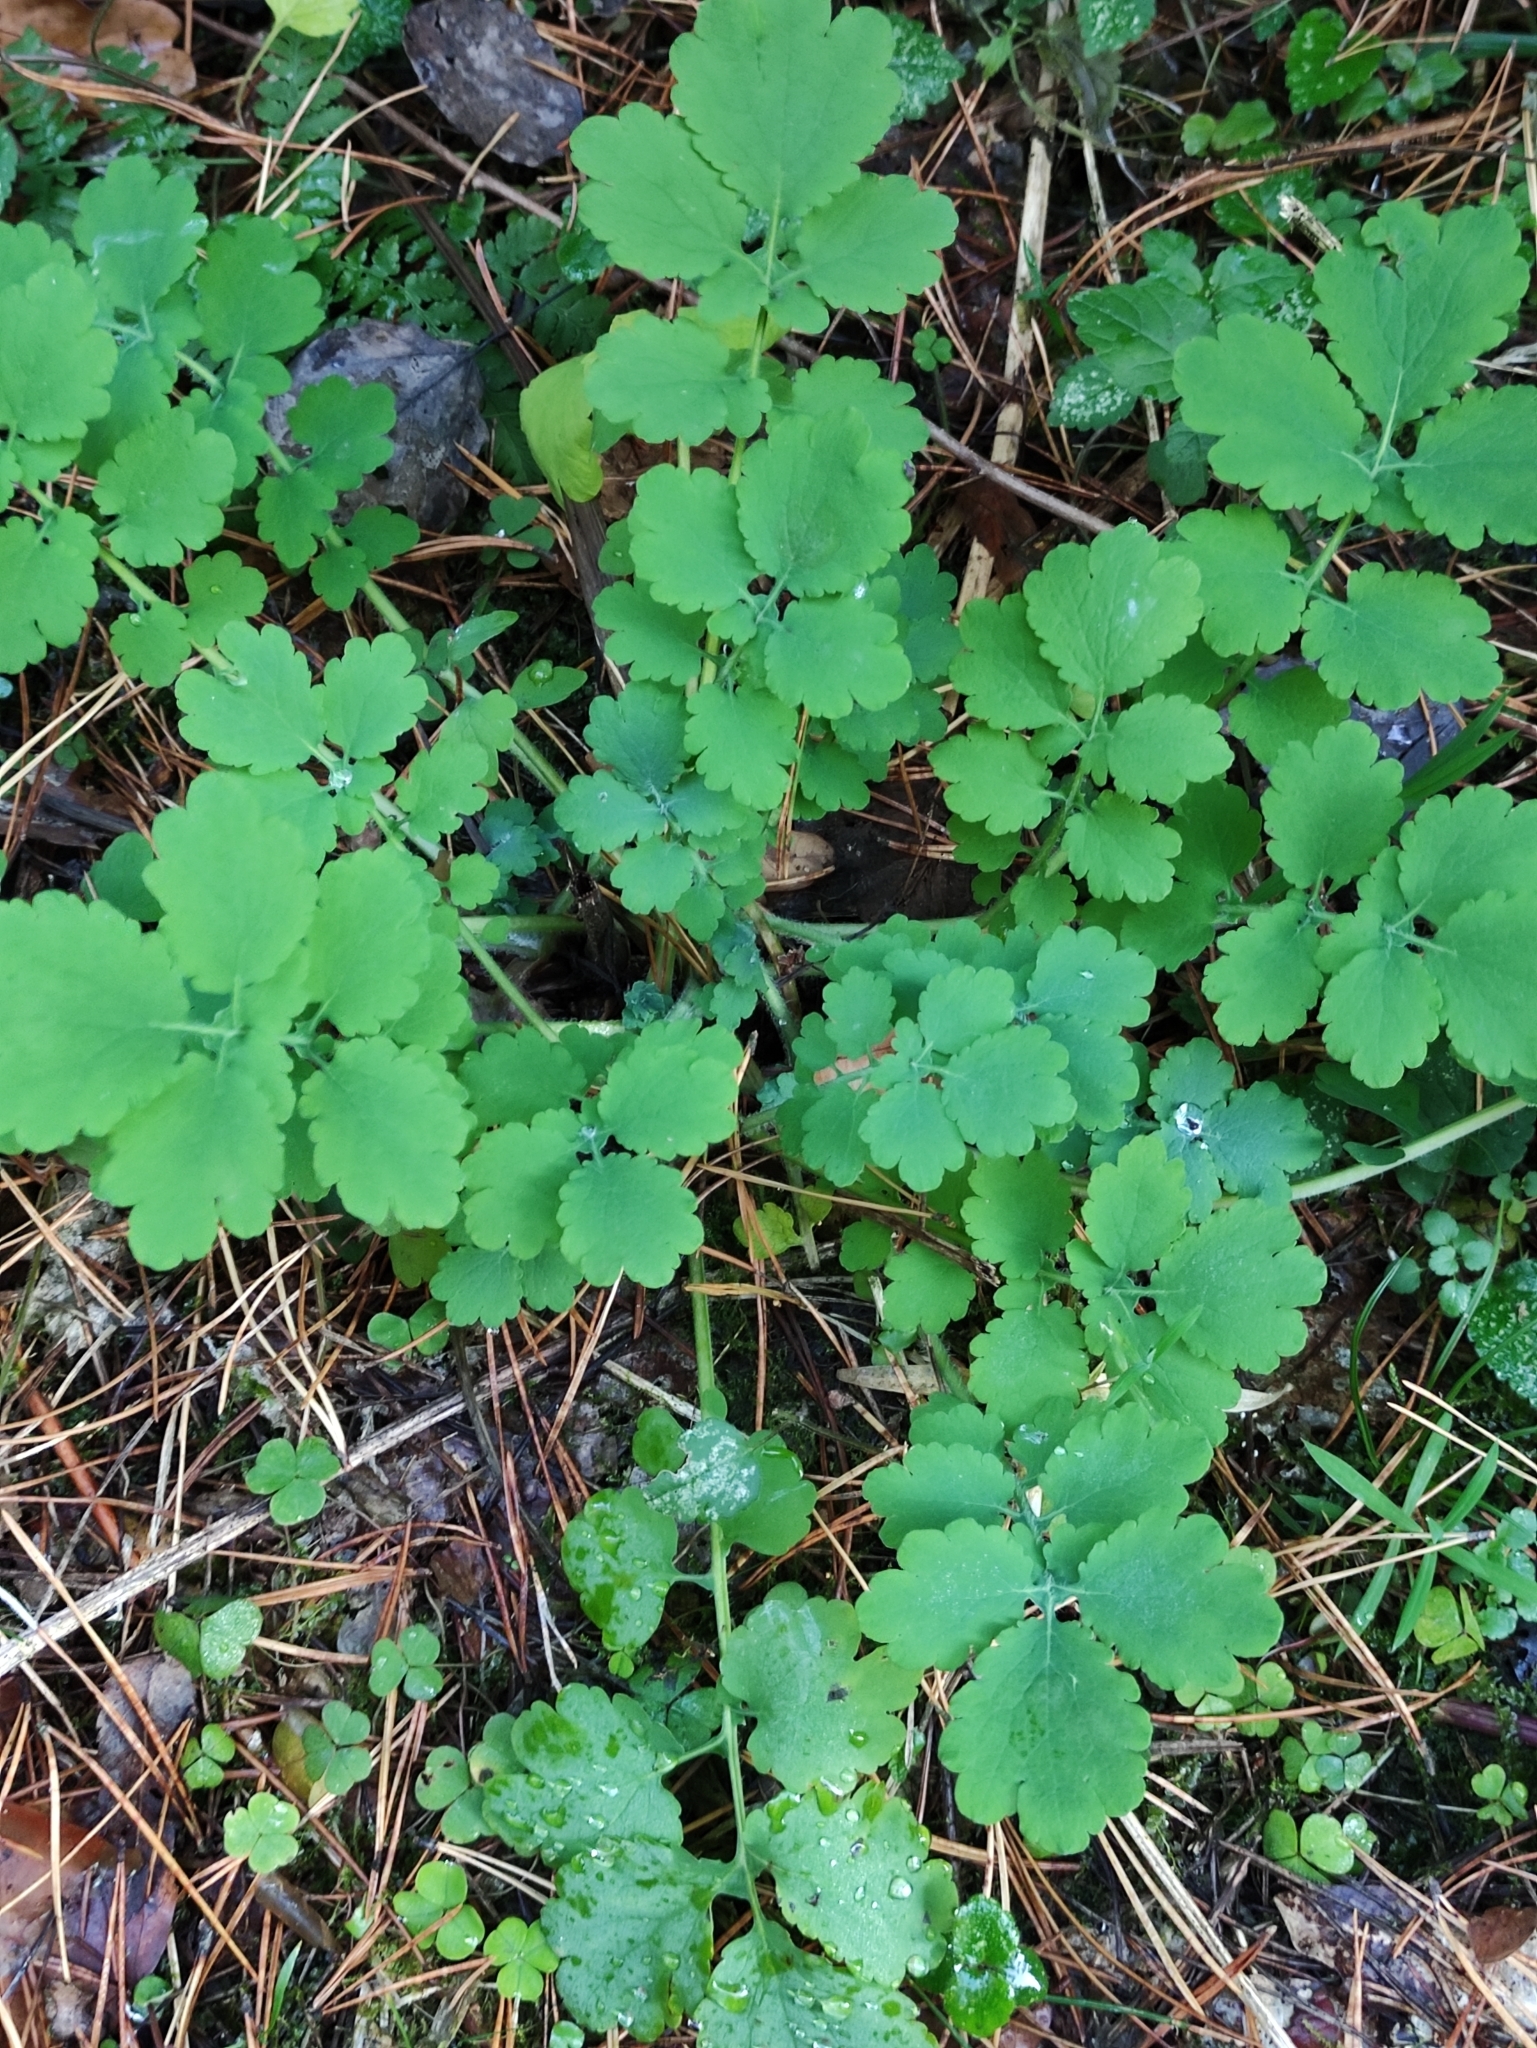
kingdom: Plantae
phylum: Tracheophyta
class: Magnoliopsida
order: Ranunculales
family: Papaveraceae
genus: Chelidonium
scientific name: Chelidonium majus
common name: Greater celandine
